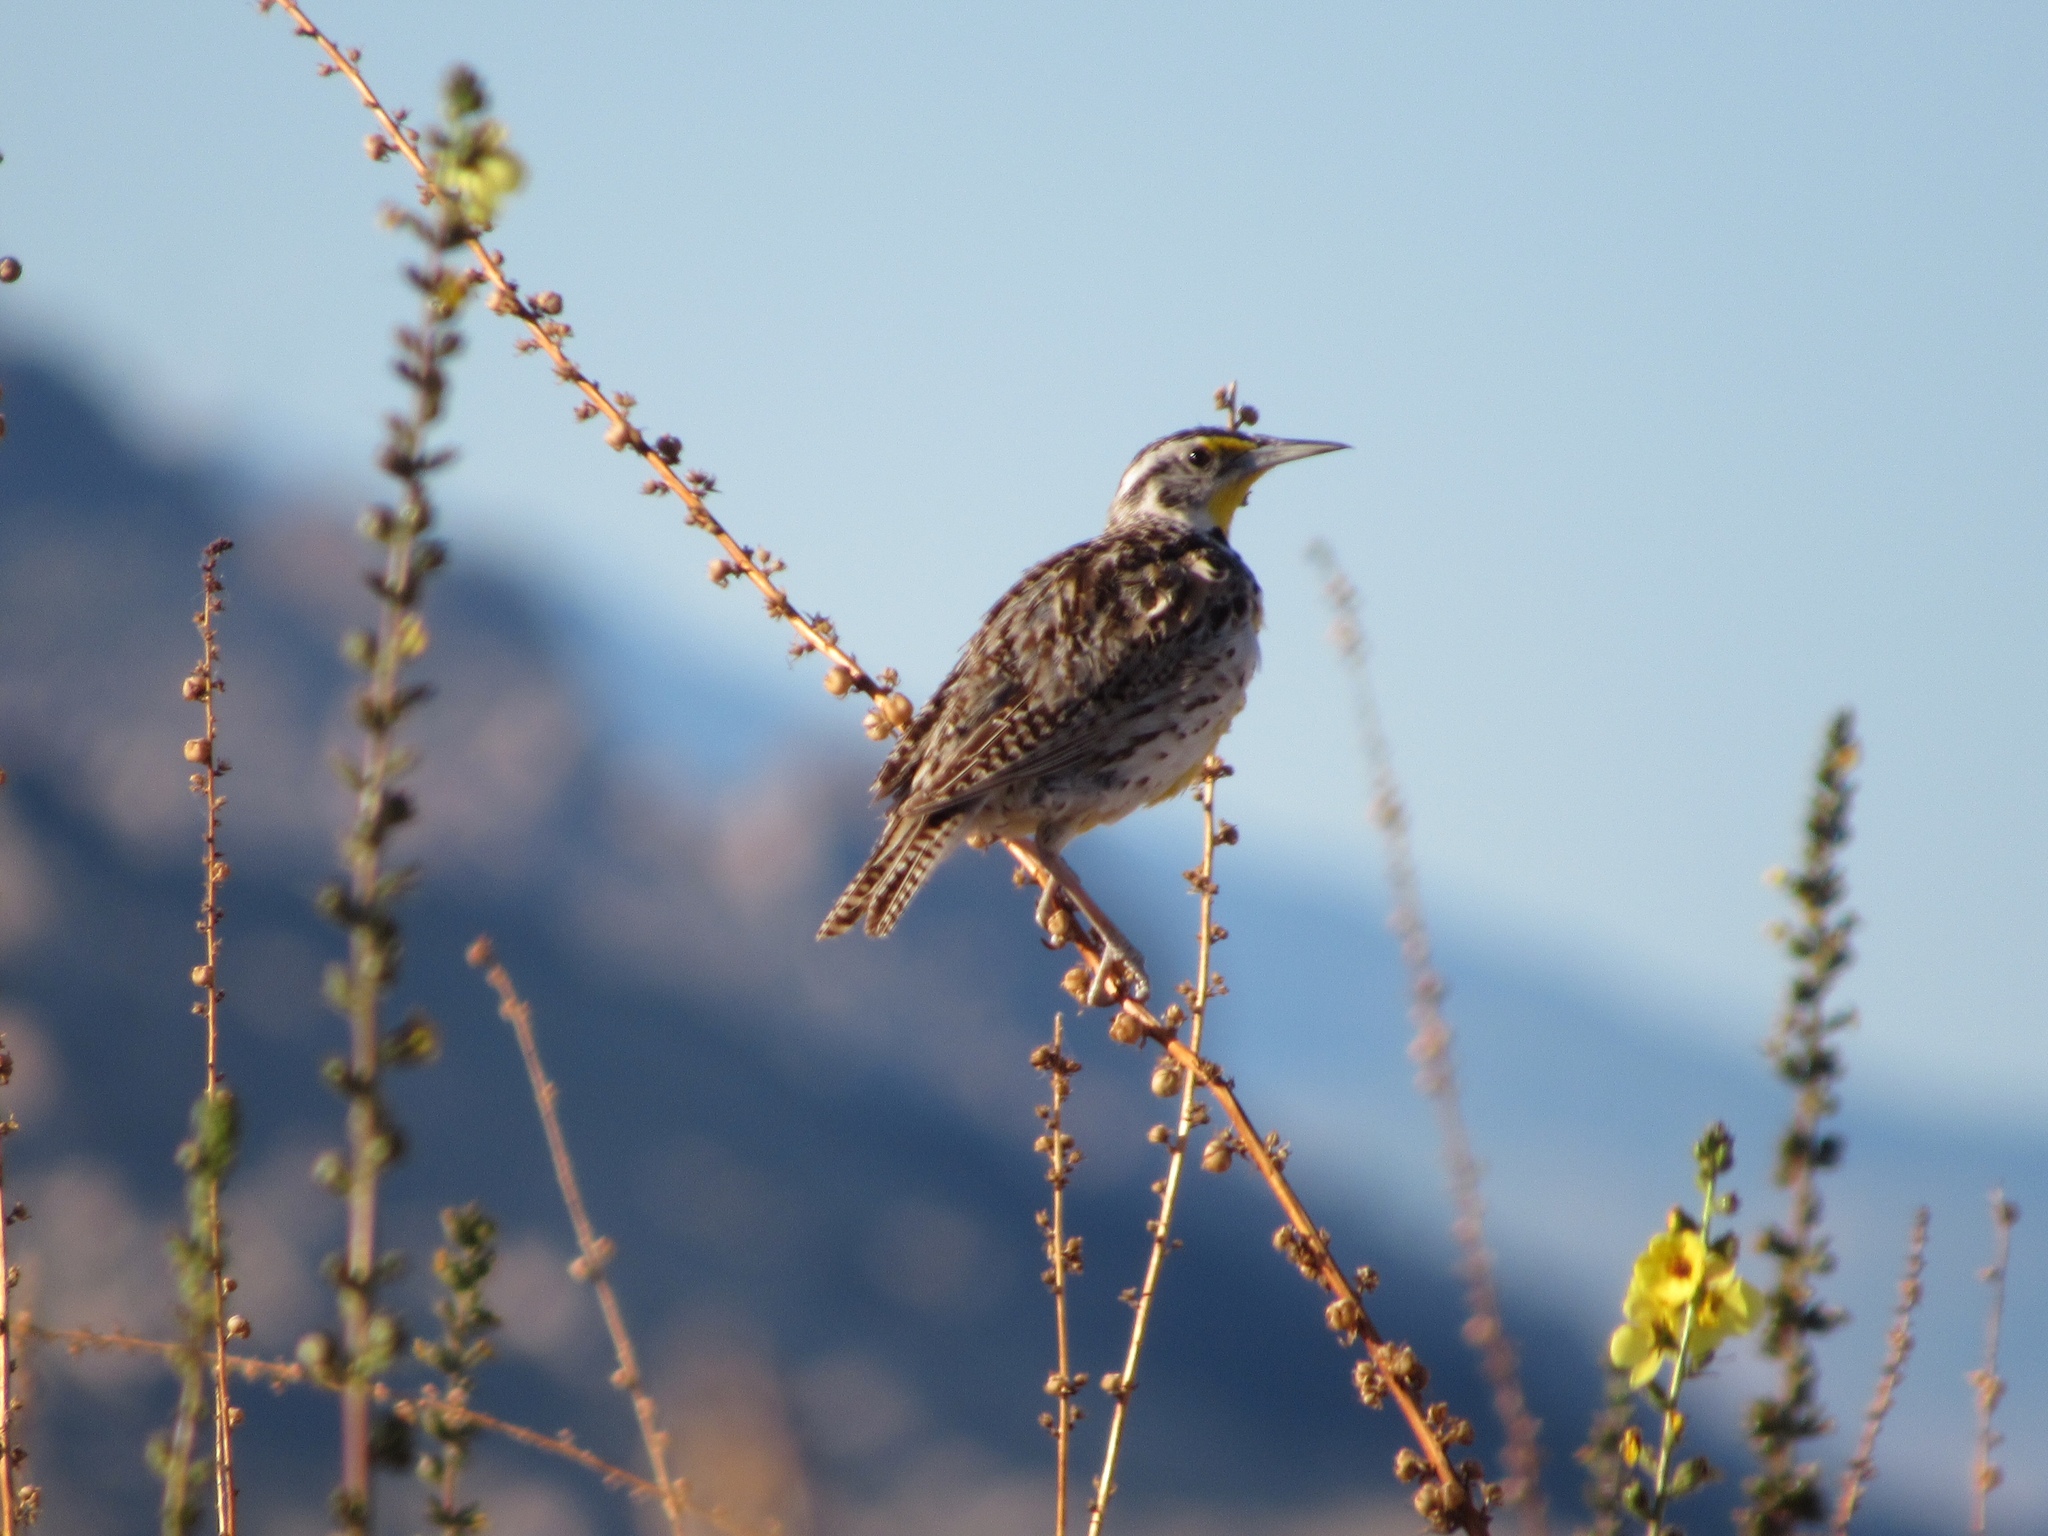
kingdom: Animalia
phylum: Chordata
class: Aves
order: Passeriformes
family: Icteridae
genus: Sturnella
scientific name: Sturnella neglecta
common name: Western meadowlark
